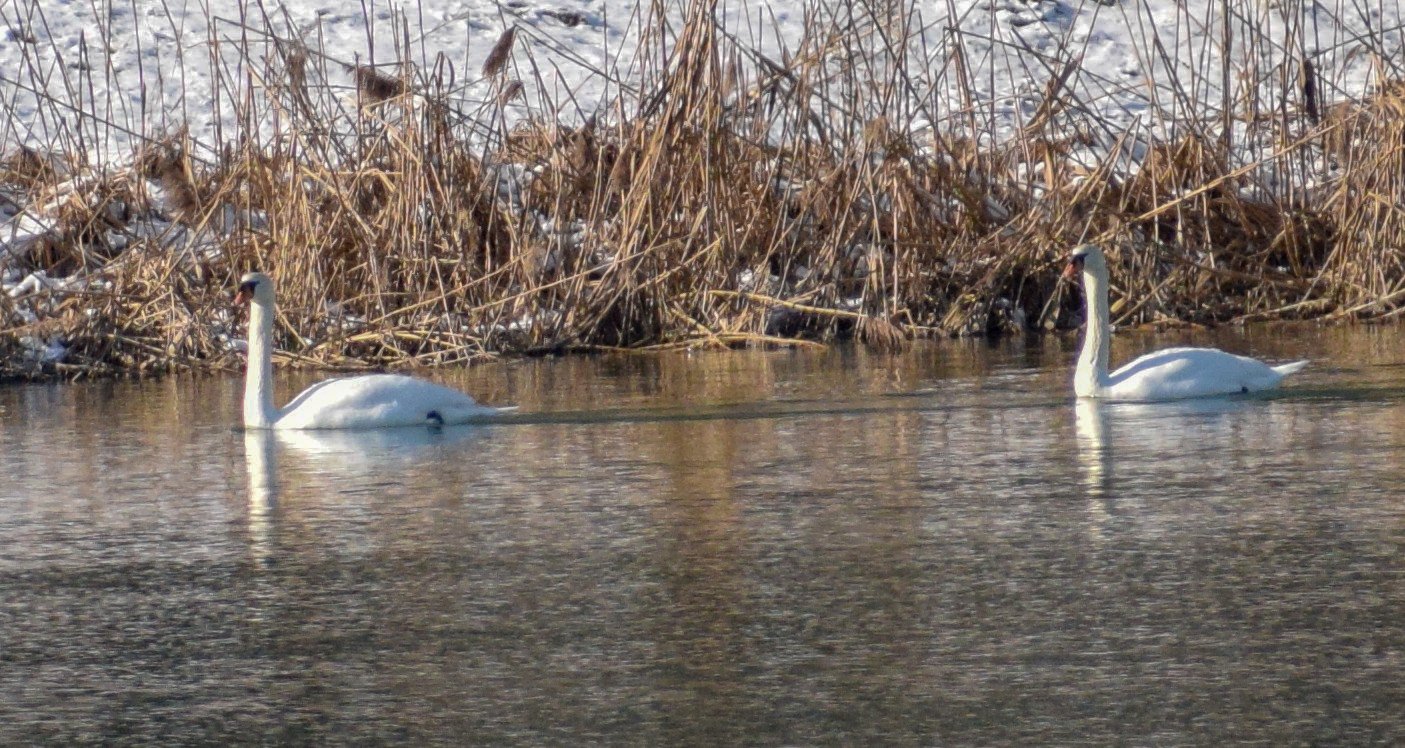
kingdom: Animalia
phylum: Chordata
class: Aves
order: Anseriformes
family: Anatidae
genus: Cygnus
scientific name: Cygnus olor
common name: Mute swan
